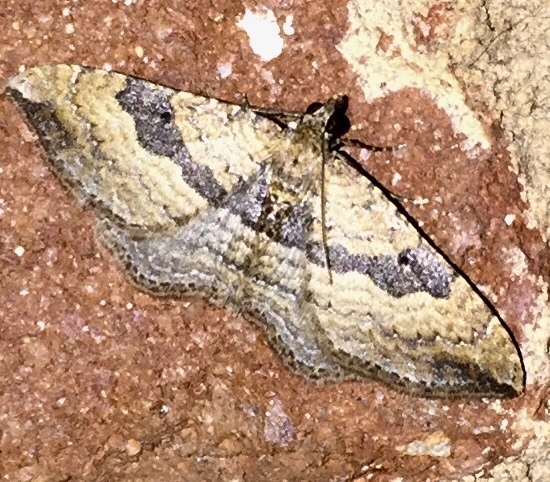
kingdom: Animalia
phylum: Arthropoda
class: Insecta
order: Lepidoptera
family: Geometridae
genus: Orthonama
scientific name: Orthonama obstipata
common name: The gem
